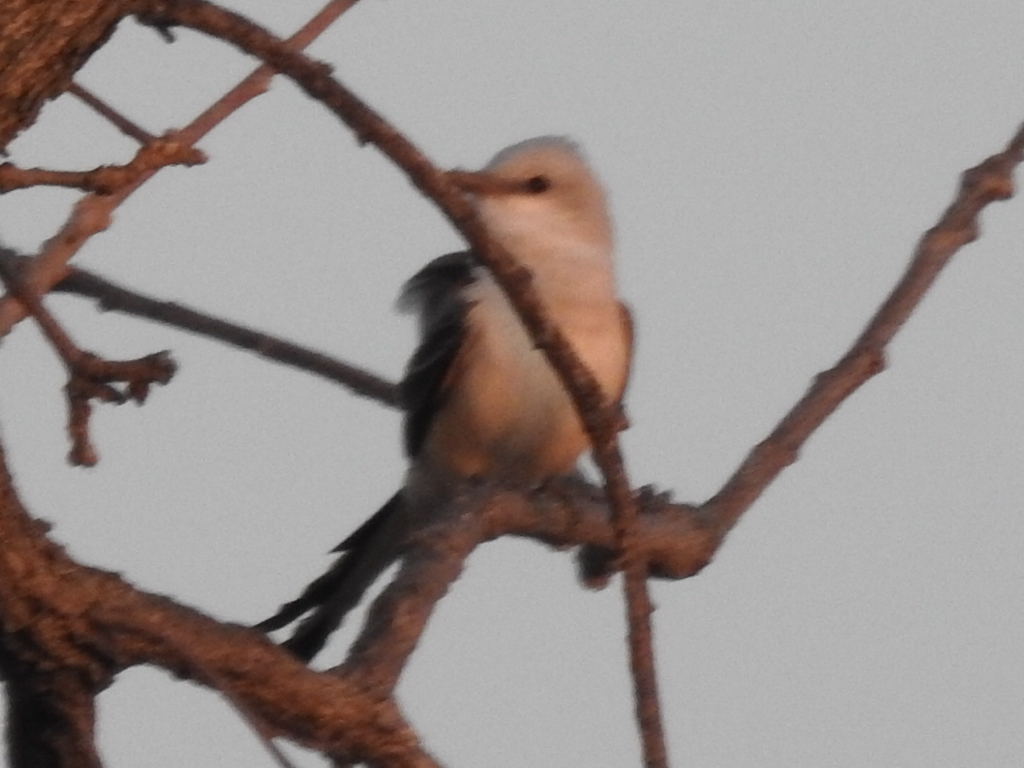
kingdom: Animalia
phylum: Chordata
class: Aves
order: Passeriformes
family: Tyrannidae
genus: Tyrannus
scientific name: Tyrannus forficatus
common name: Scissor-tailed flycatcher
